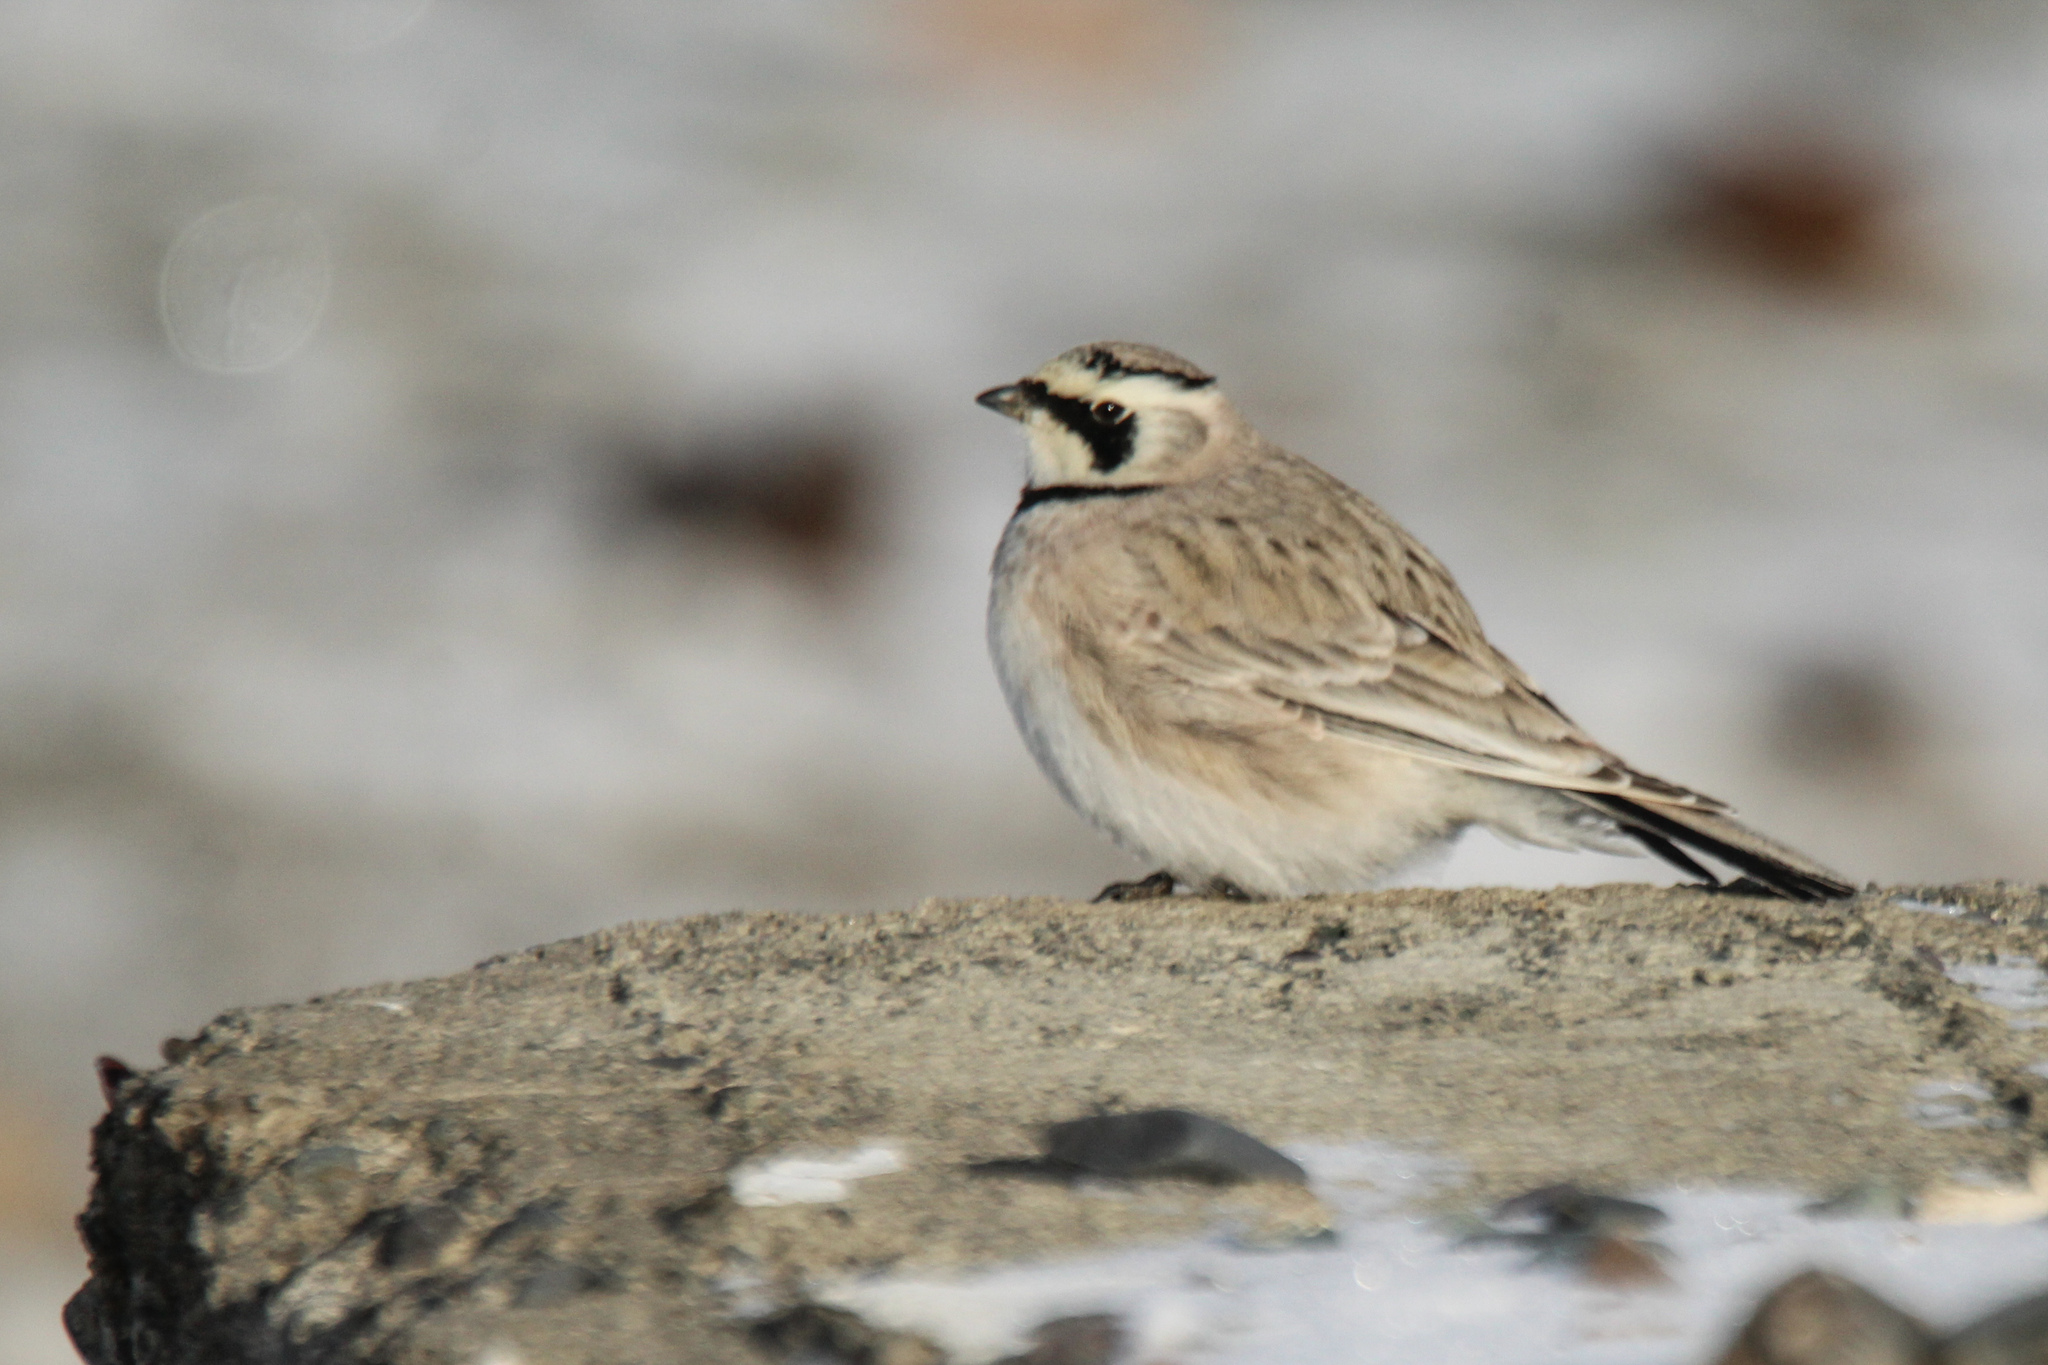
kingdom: Animalia
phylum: Chordata
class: Aves
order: Passeriformes
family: Alaudidae
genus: Eremophila
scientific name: Eremophila alpestris
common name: Horned lark
